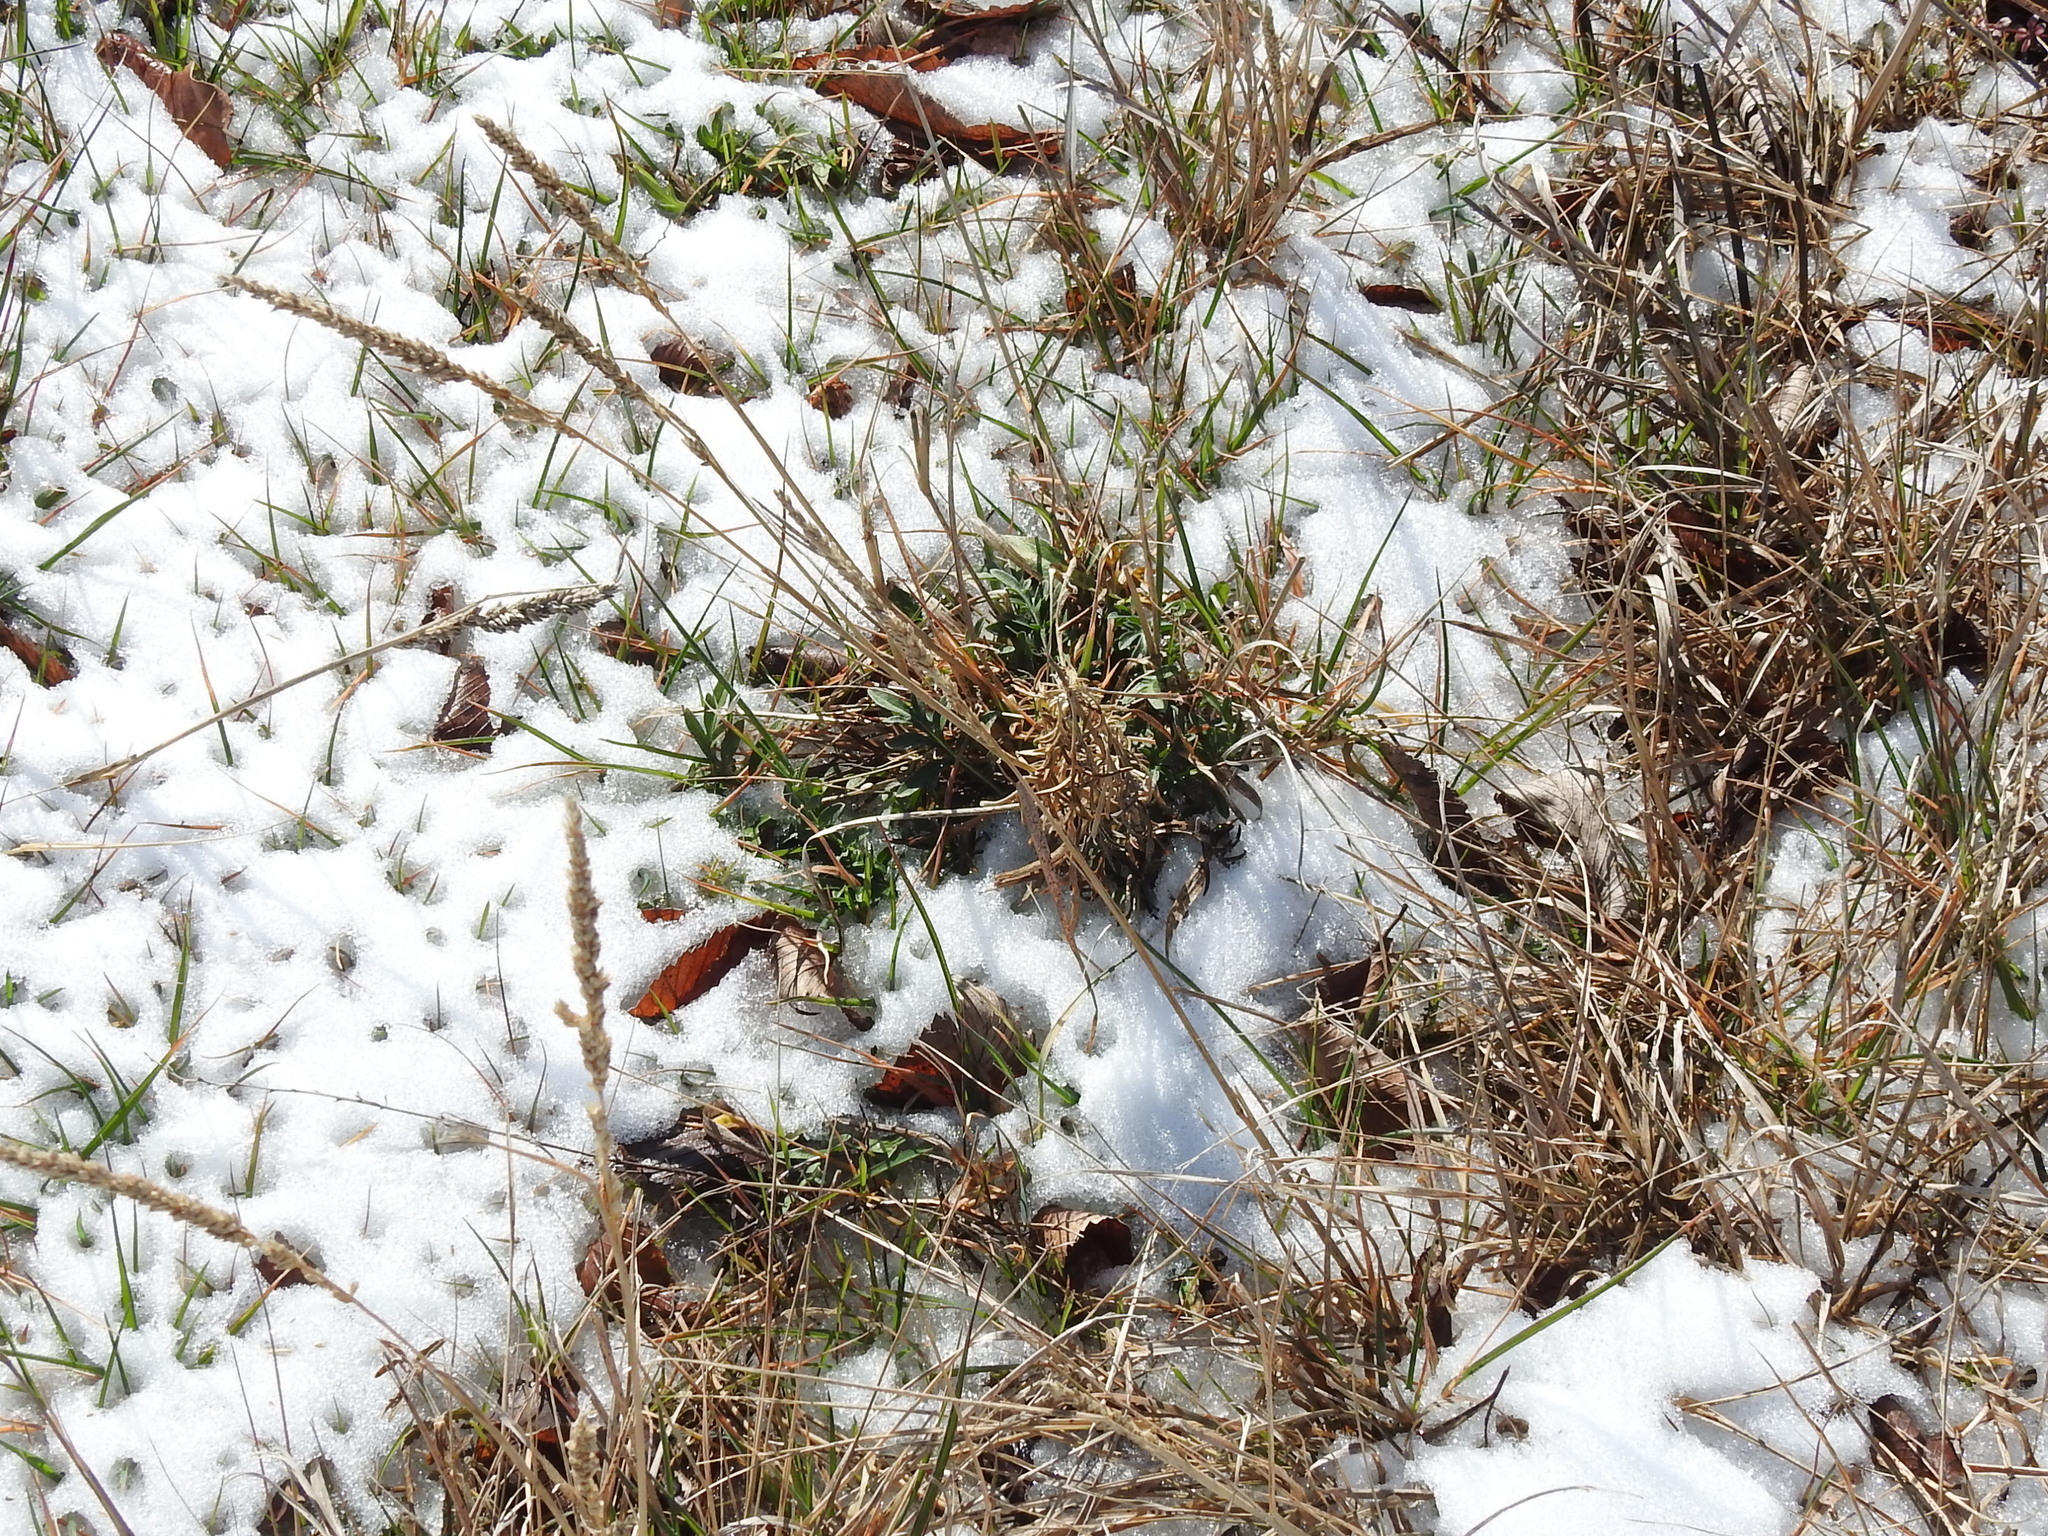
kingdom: Plantae
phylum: Tracheophyta
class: Liliopsida
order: Poales
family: Poaceae
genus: Tridens
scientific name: Tridens albescens
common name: White tridens
